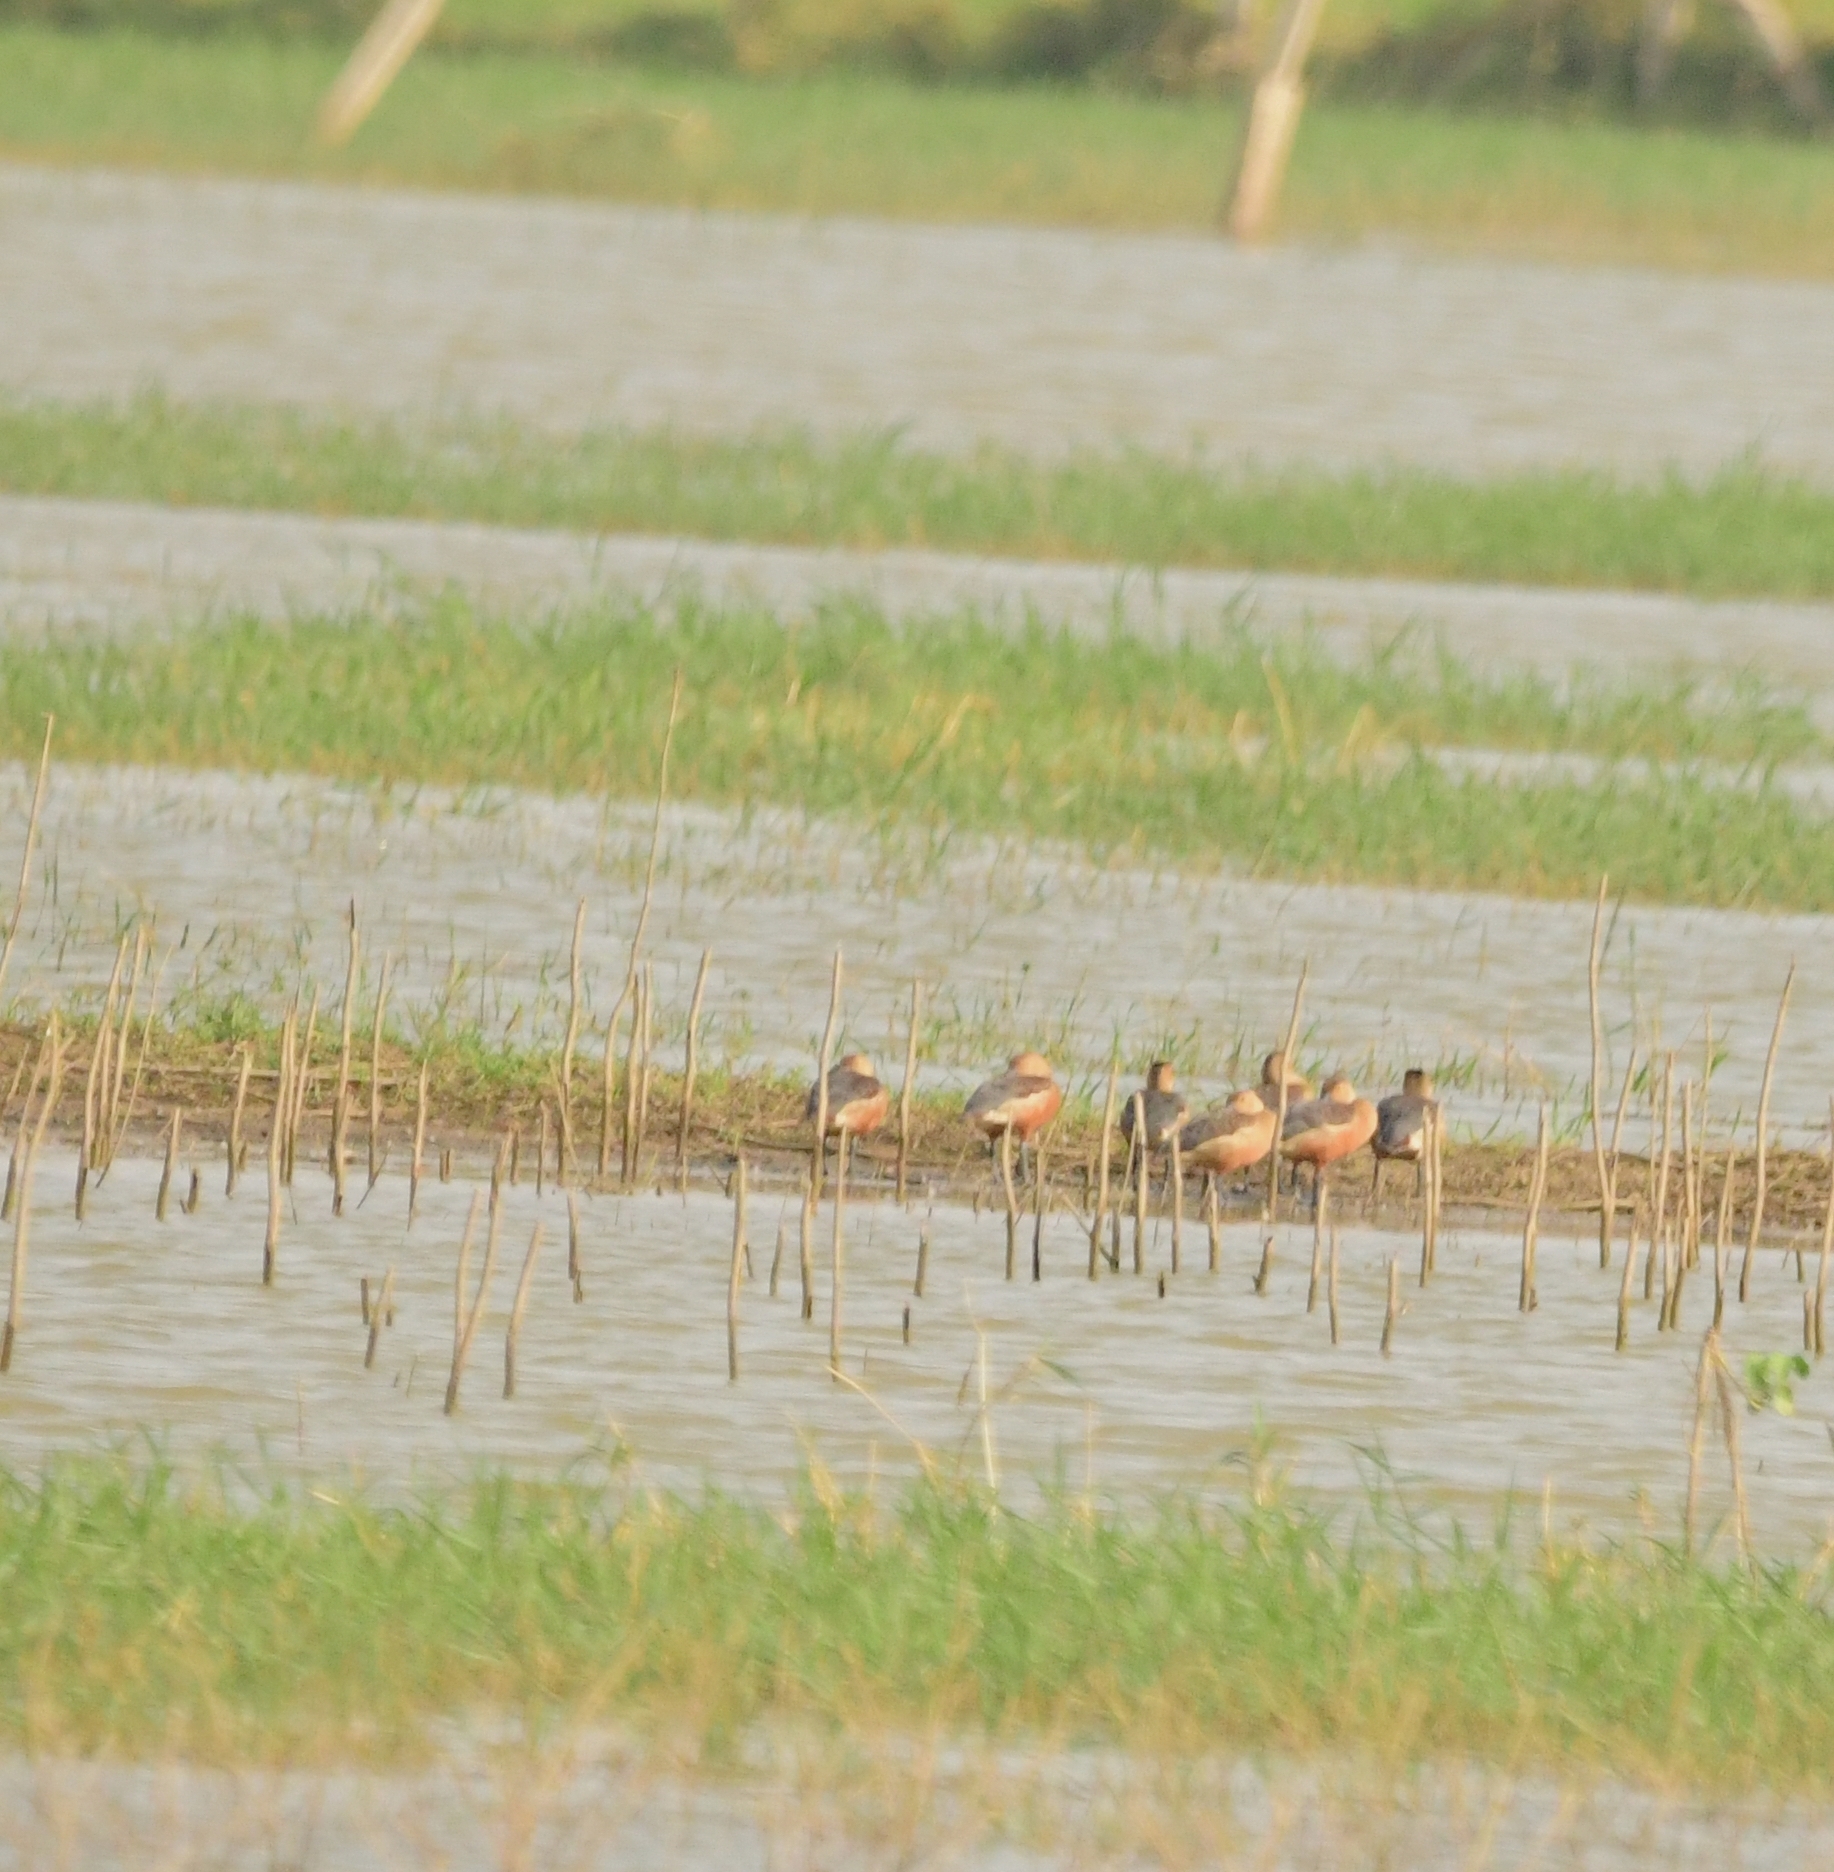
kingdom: Animalia
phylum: Chordata
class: Aves
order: Anseriformes
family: Anatidae
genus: Dendrocygna
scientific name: Dendrocygna javanica
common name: Lesser whistling-duck
